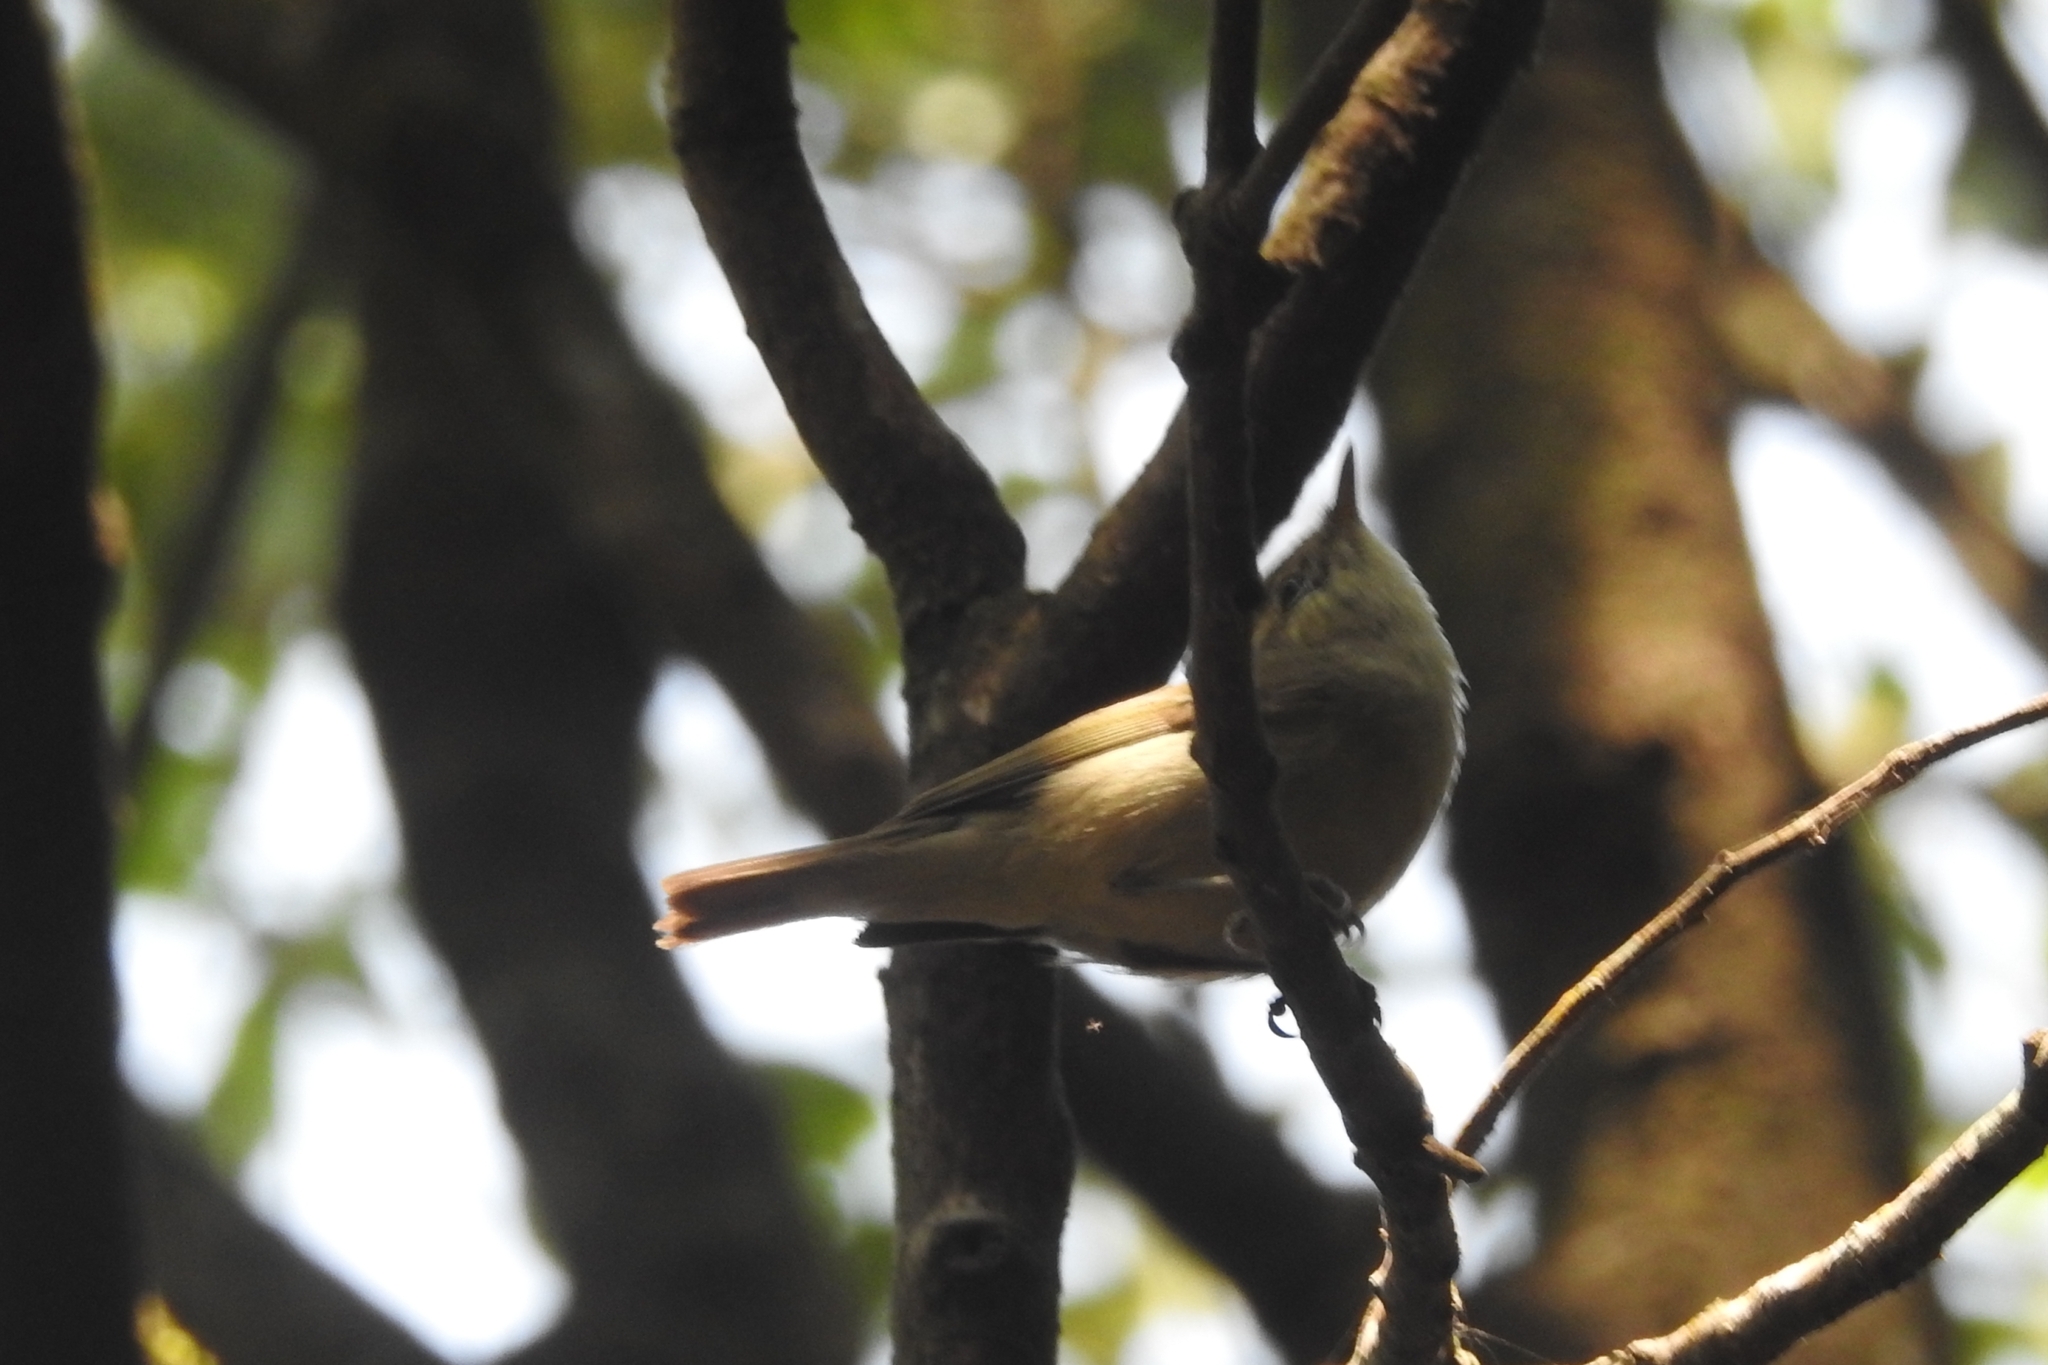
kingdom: Animalia
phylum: Chordata
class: Aves
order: Passeriformes
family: Phylloscopidae
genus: Phylloscopus
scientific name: Phylloscopus trochiloides
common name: Greenish warbler
